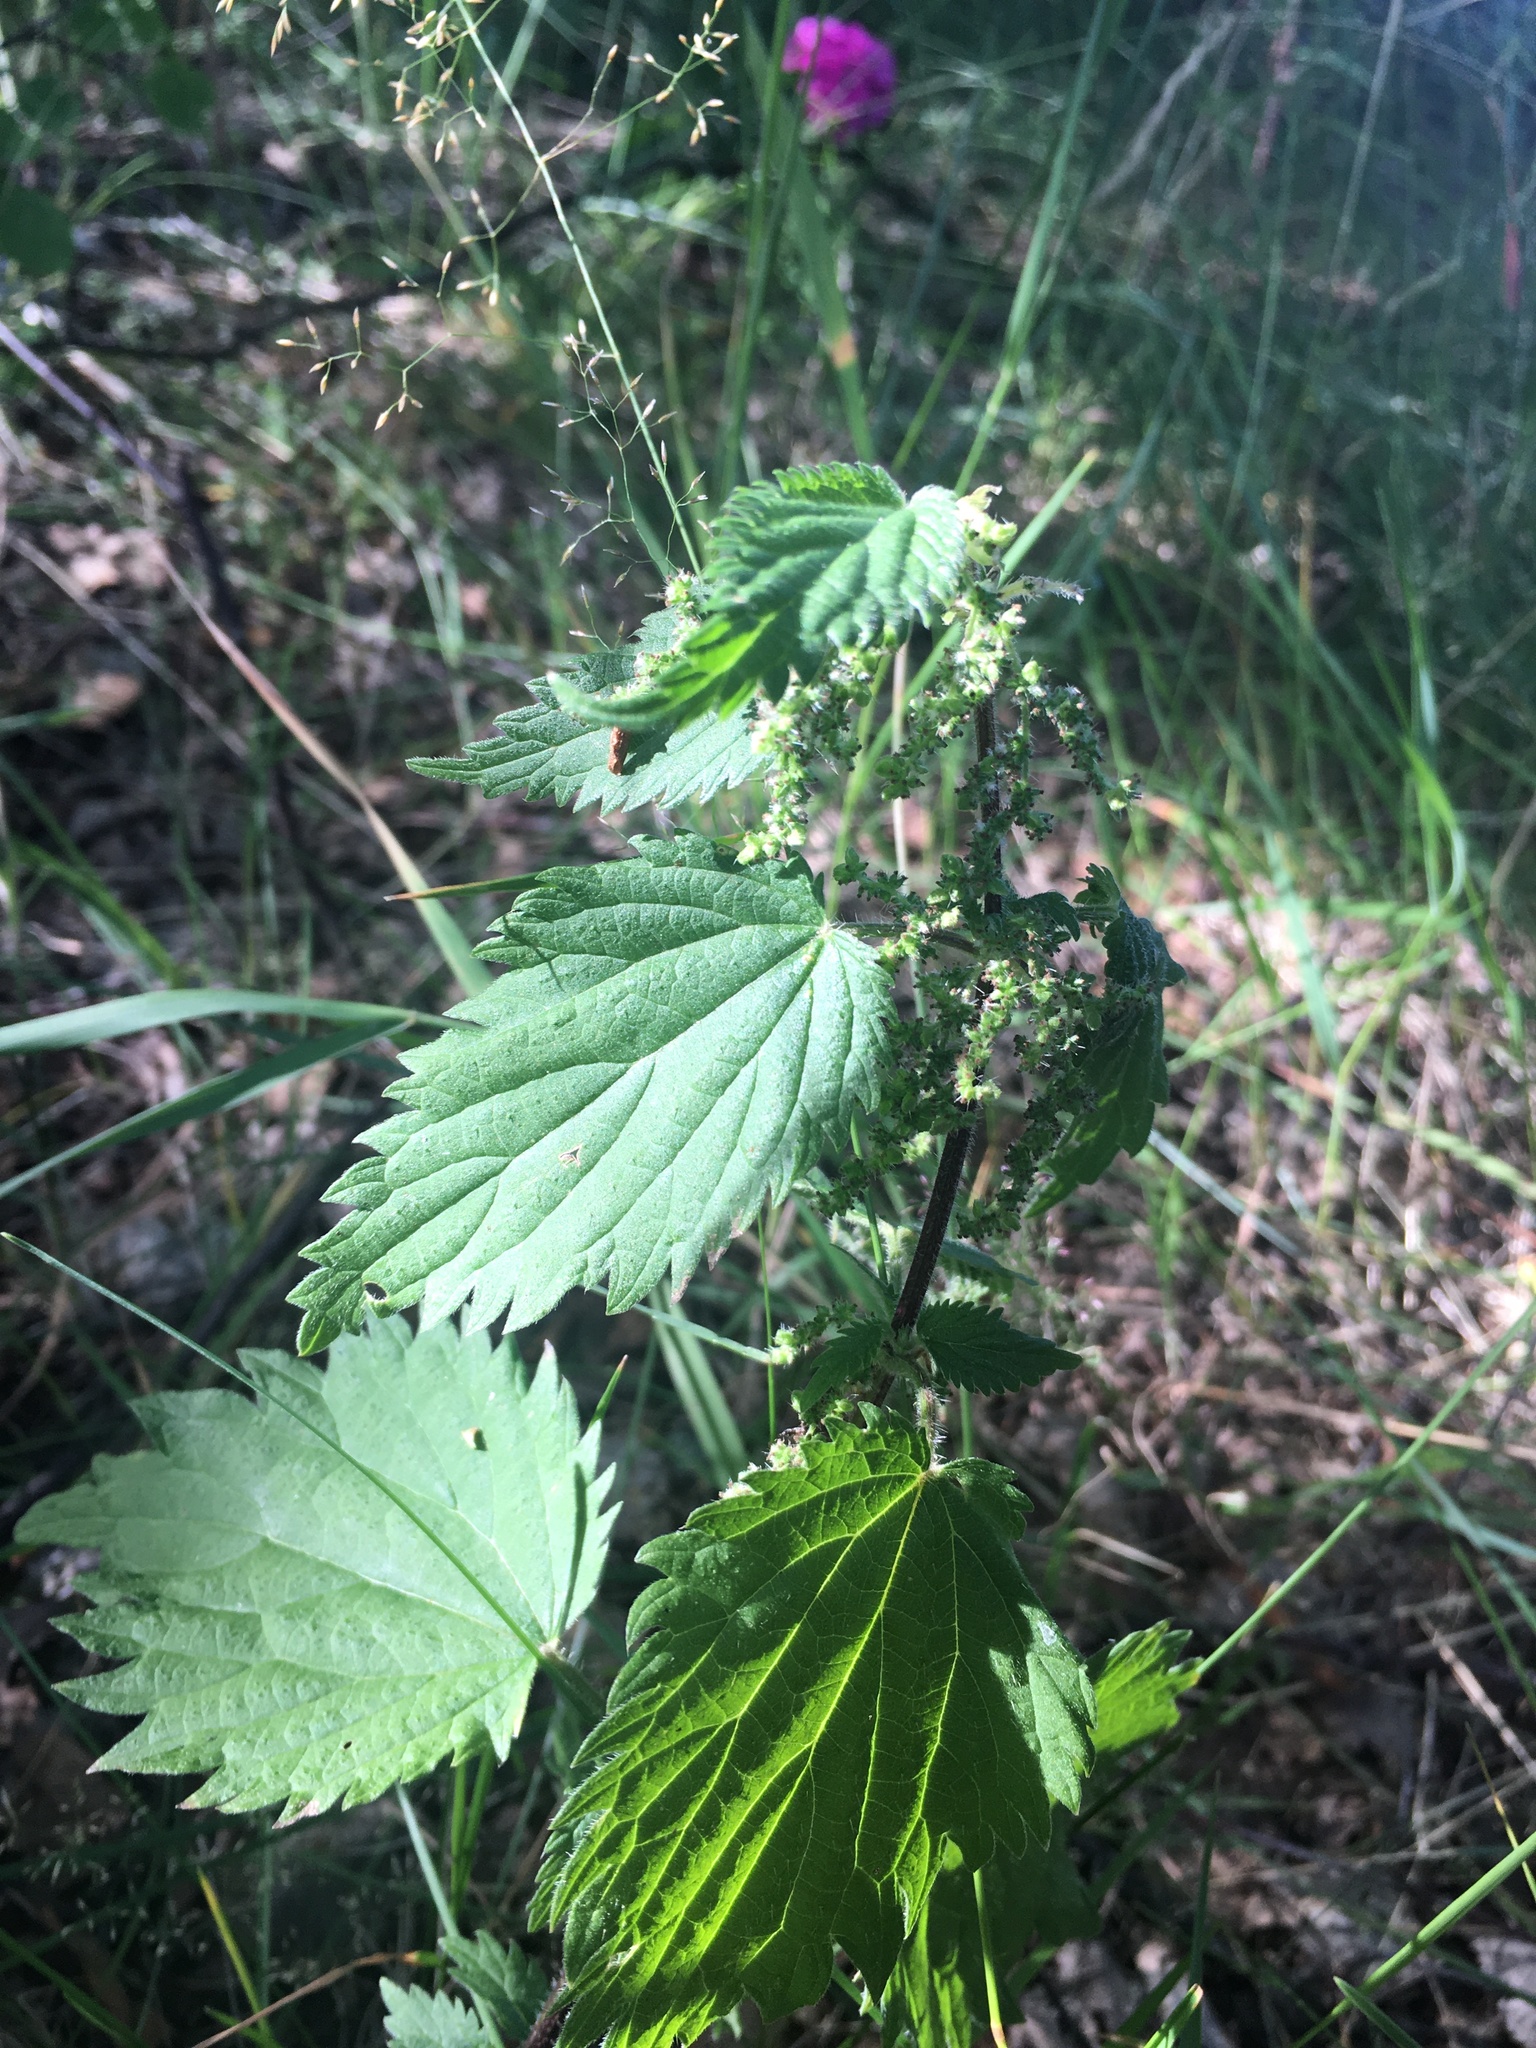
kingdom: Plantae
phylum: Tracheophyta
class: Magnoliopsida
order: Rosales
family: Urticaceae
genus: Urtica
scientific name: Urtica dioica
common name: Common nettle
